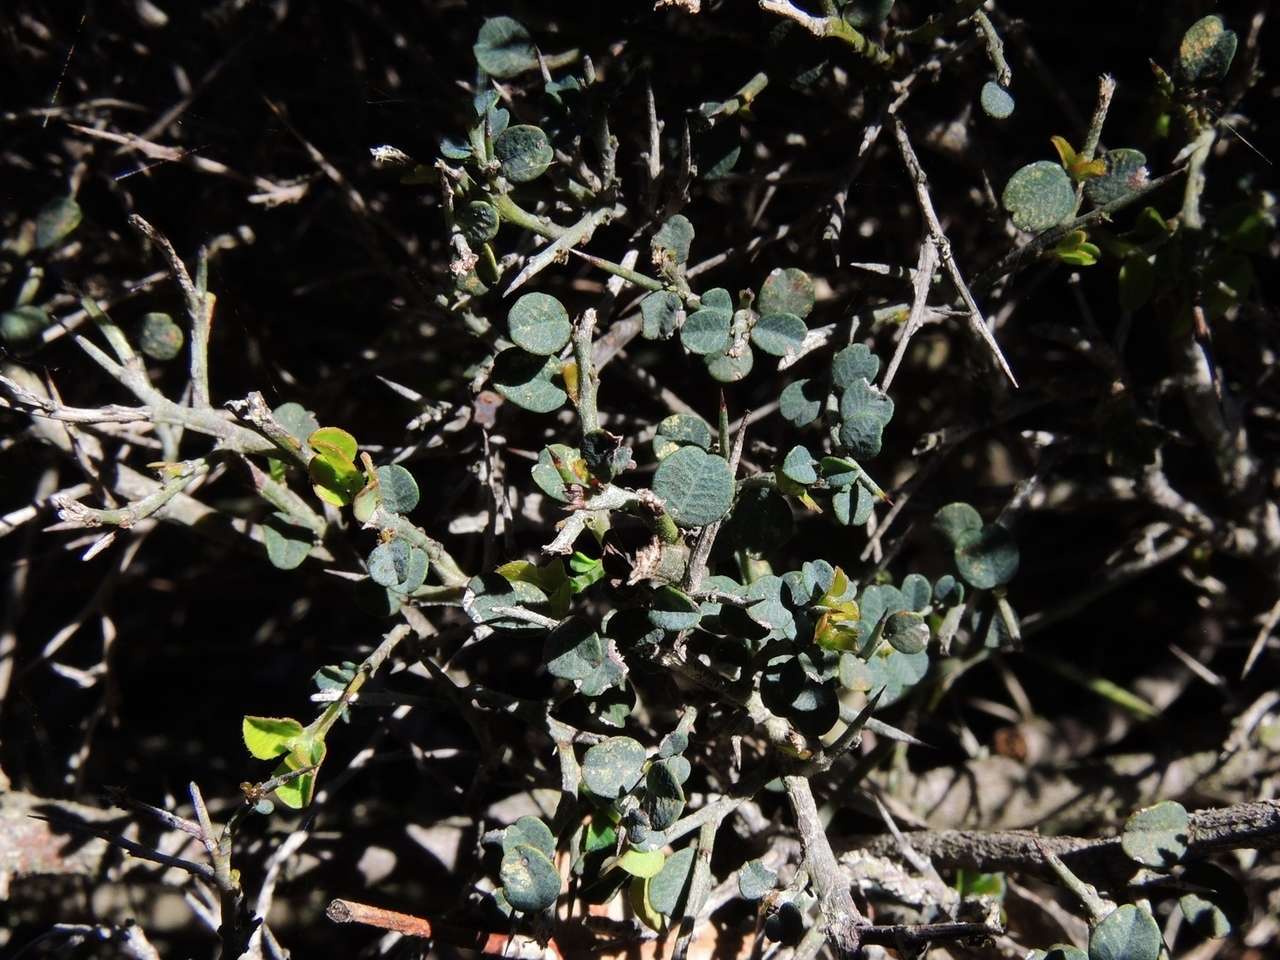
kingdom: Plantae
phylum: Tracheophyta
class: Magnoliopsida
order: Fabales
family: Fabaceae
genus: Bossiaea
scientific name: Bossiaea obcordata
